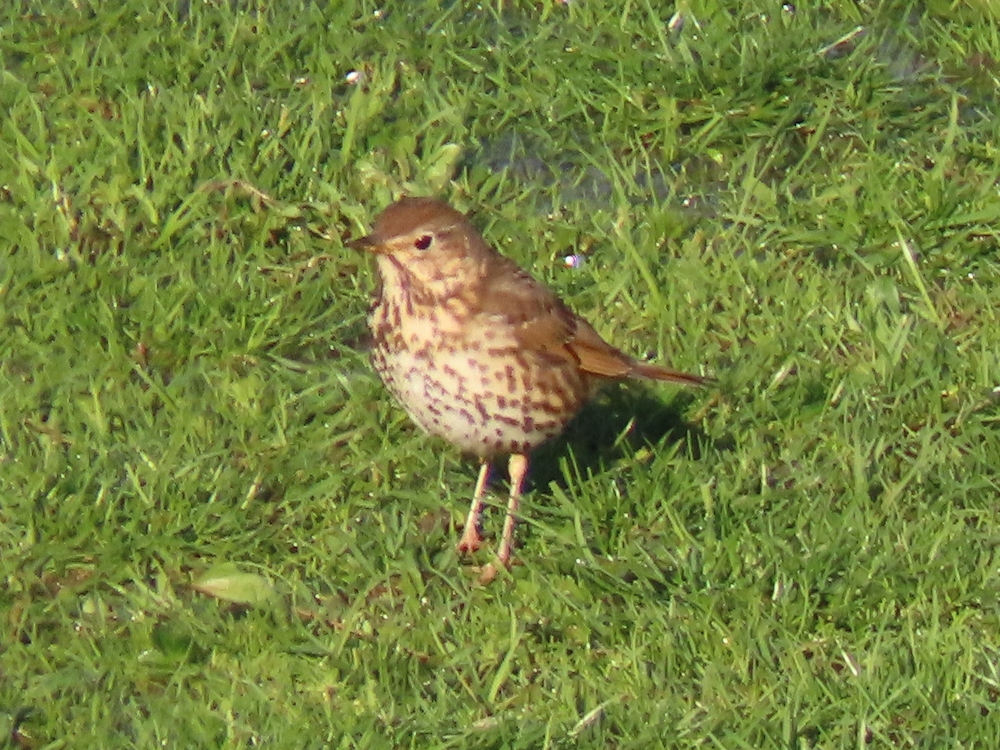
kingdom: Animalia
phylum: Chordata
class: Aves
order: Passeriformes
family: Turdidae
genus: Turdus
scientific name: Turdus philomelos
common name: Song thrush
